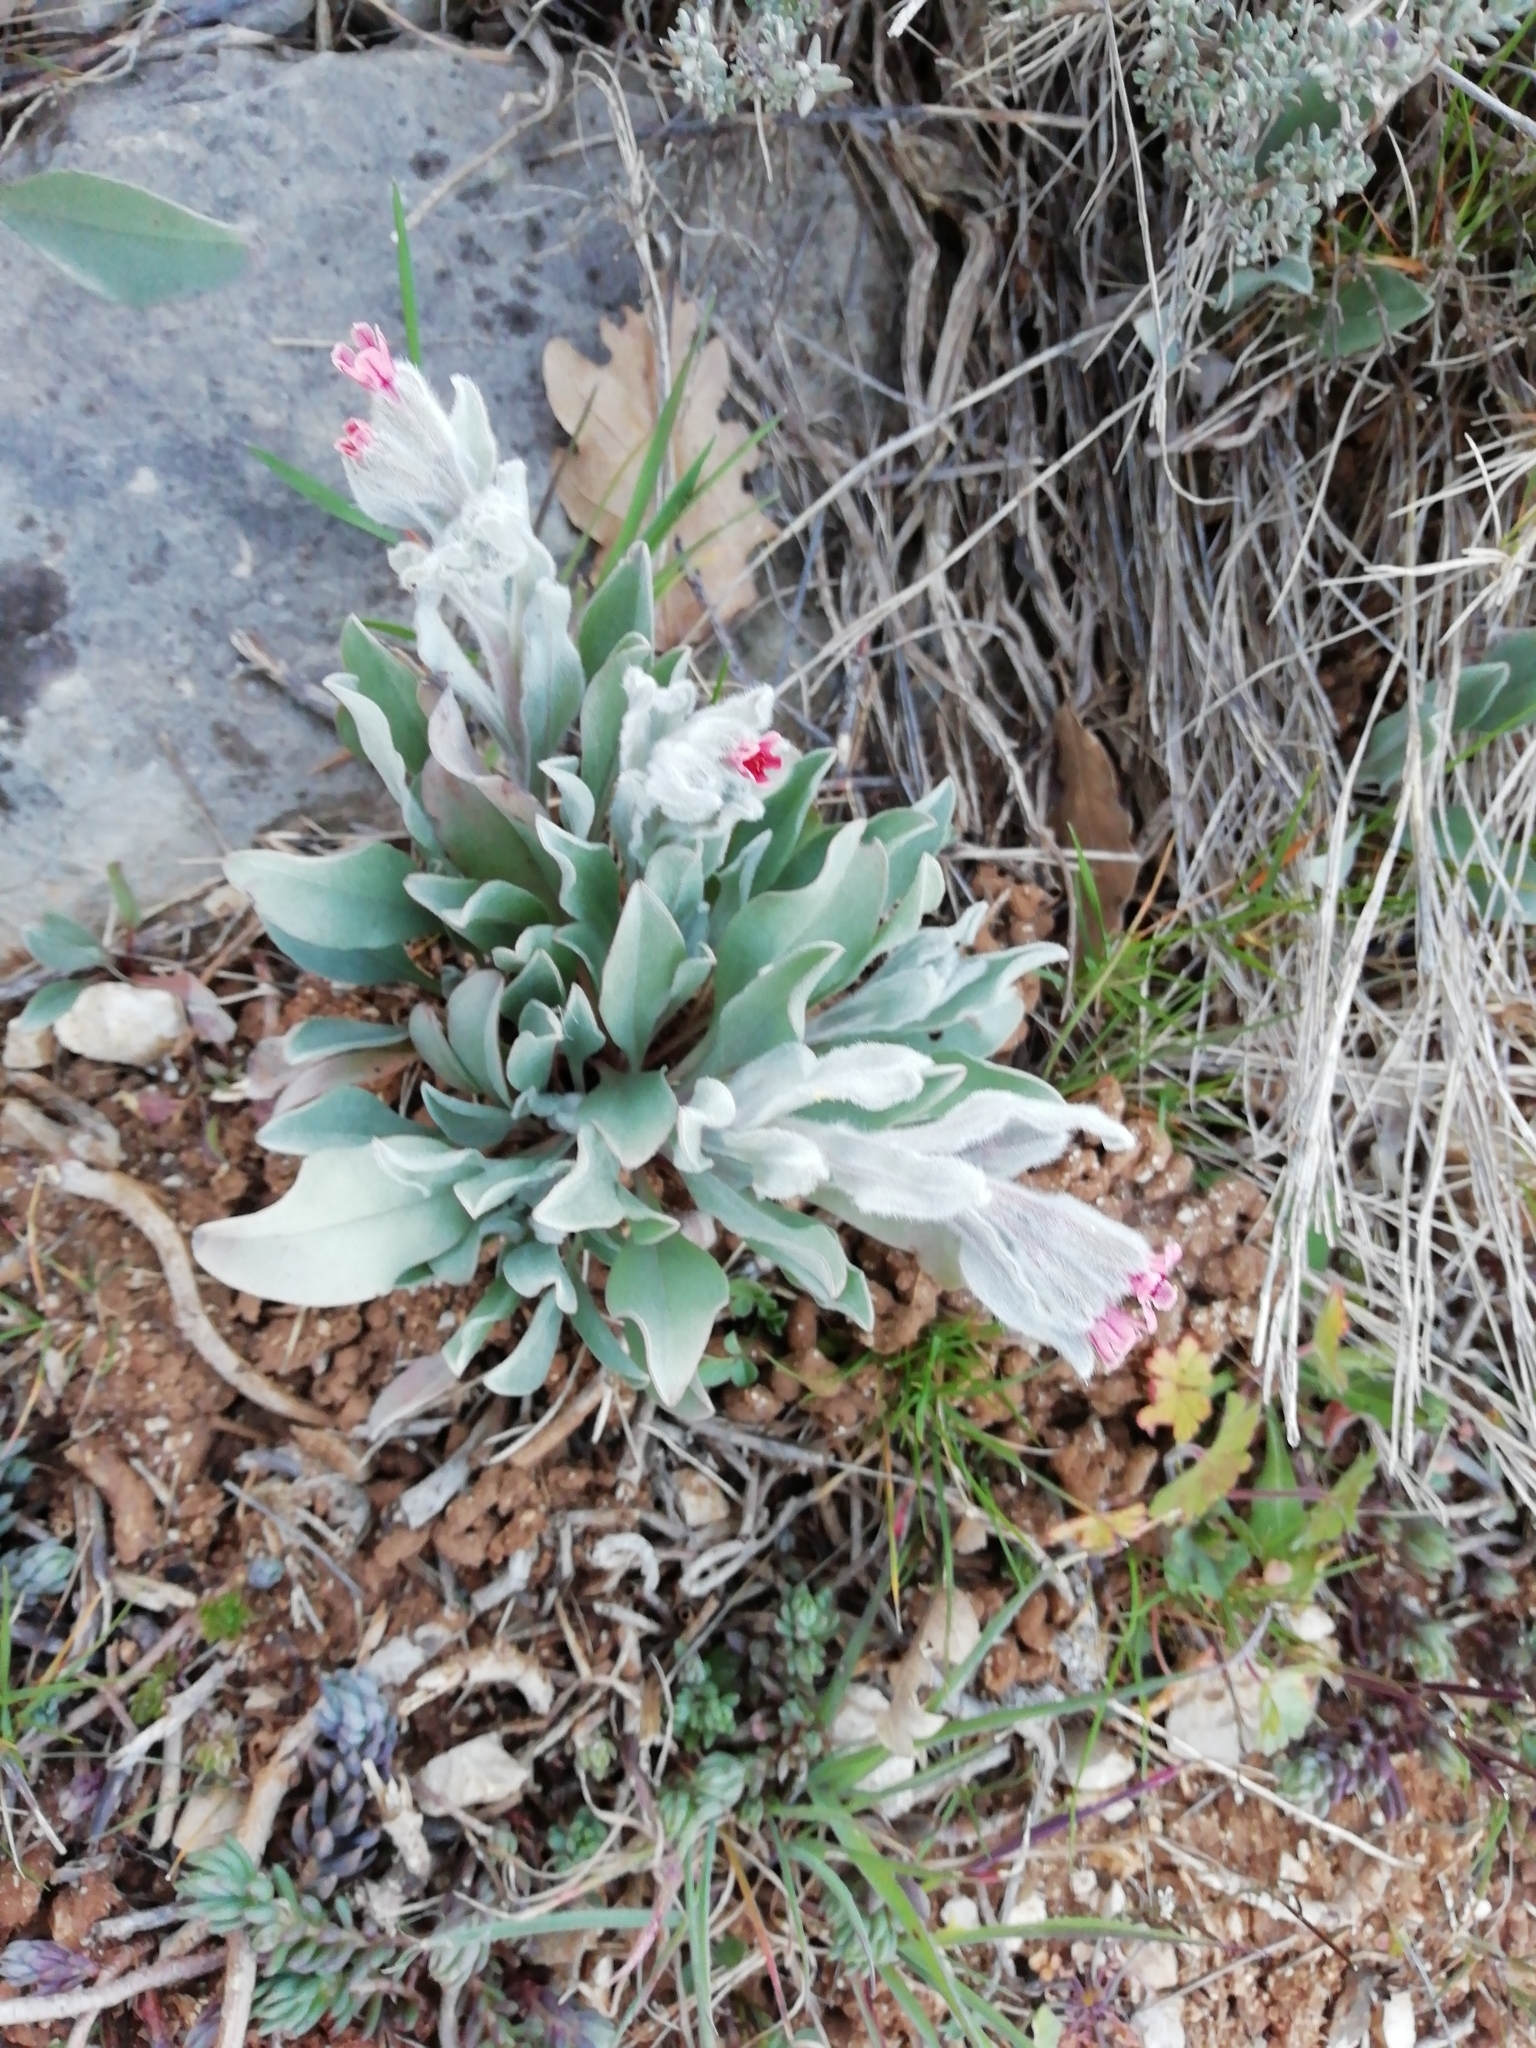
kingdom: Plantae
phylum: Tracheophyta
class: Magnoliopsida
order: Boraginales
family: Boraginaceae
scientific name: Boraginaceae
